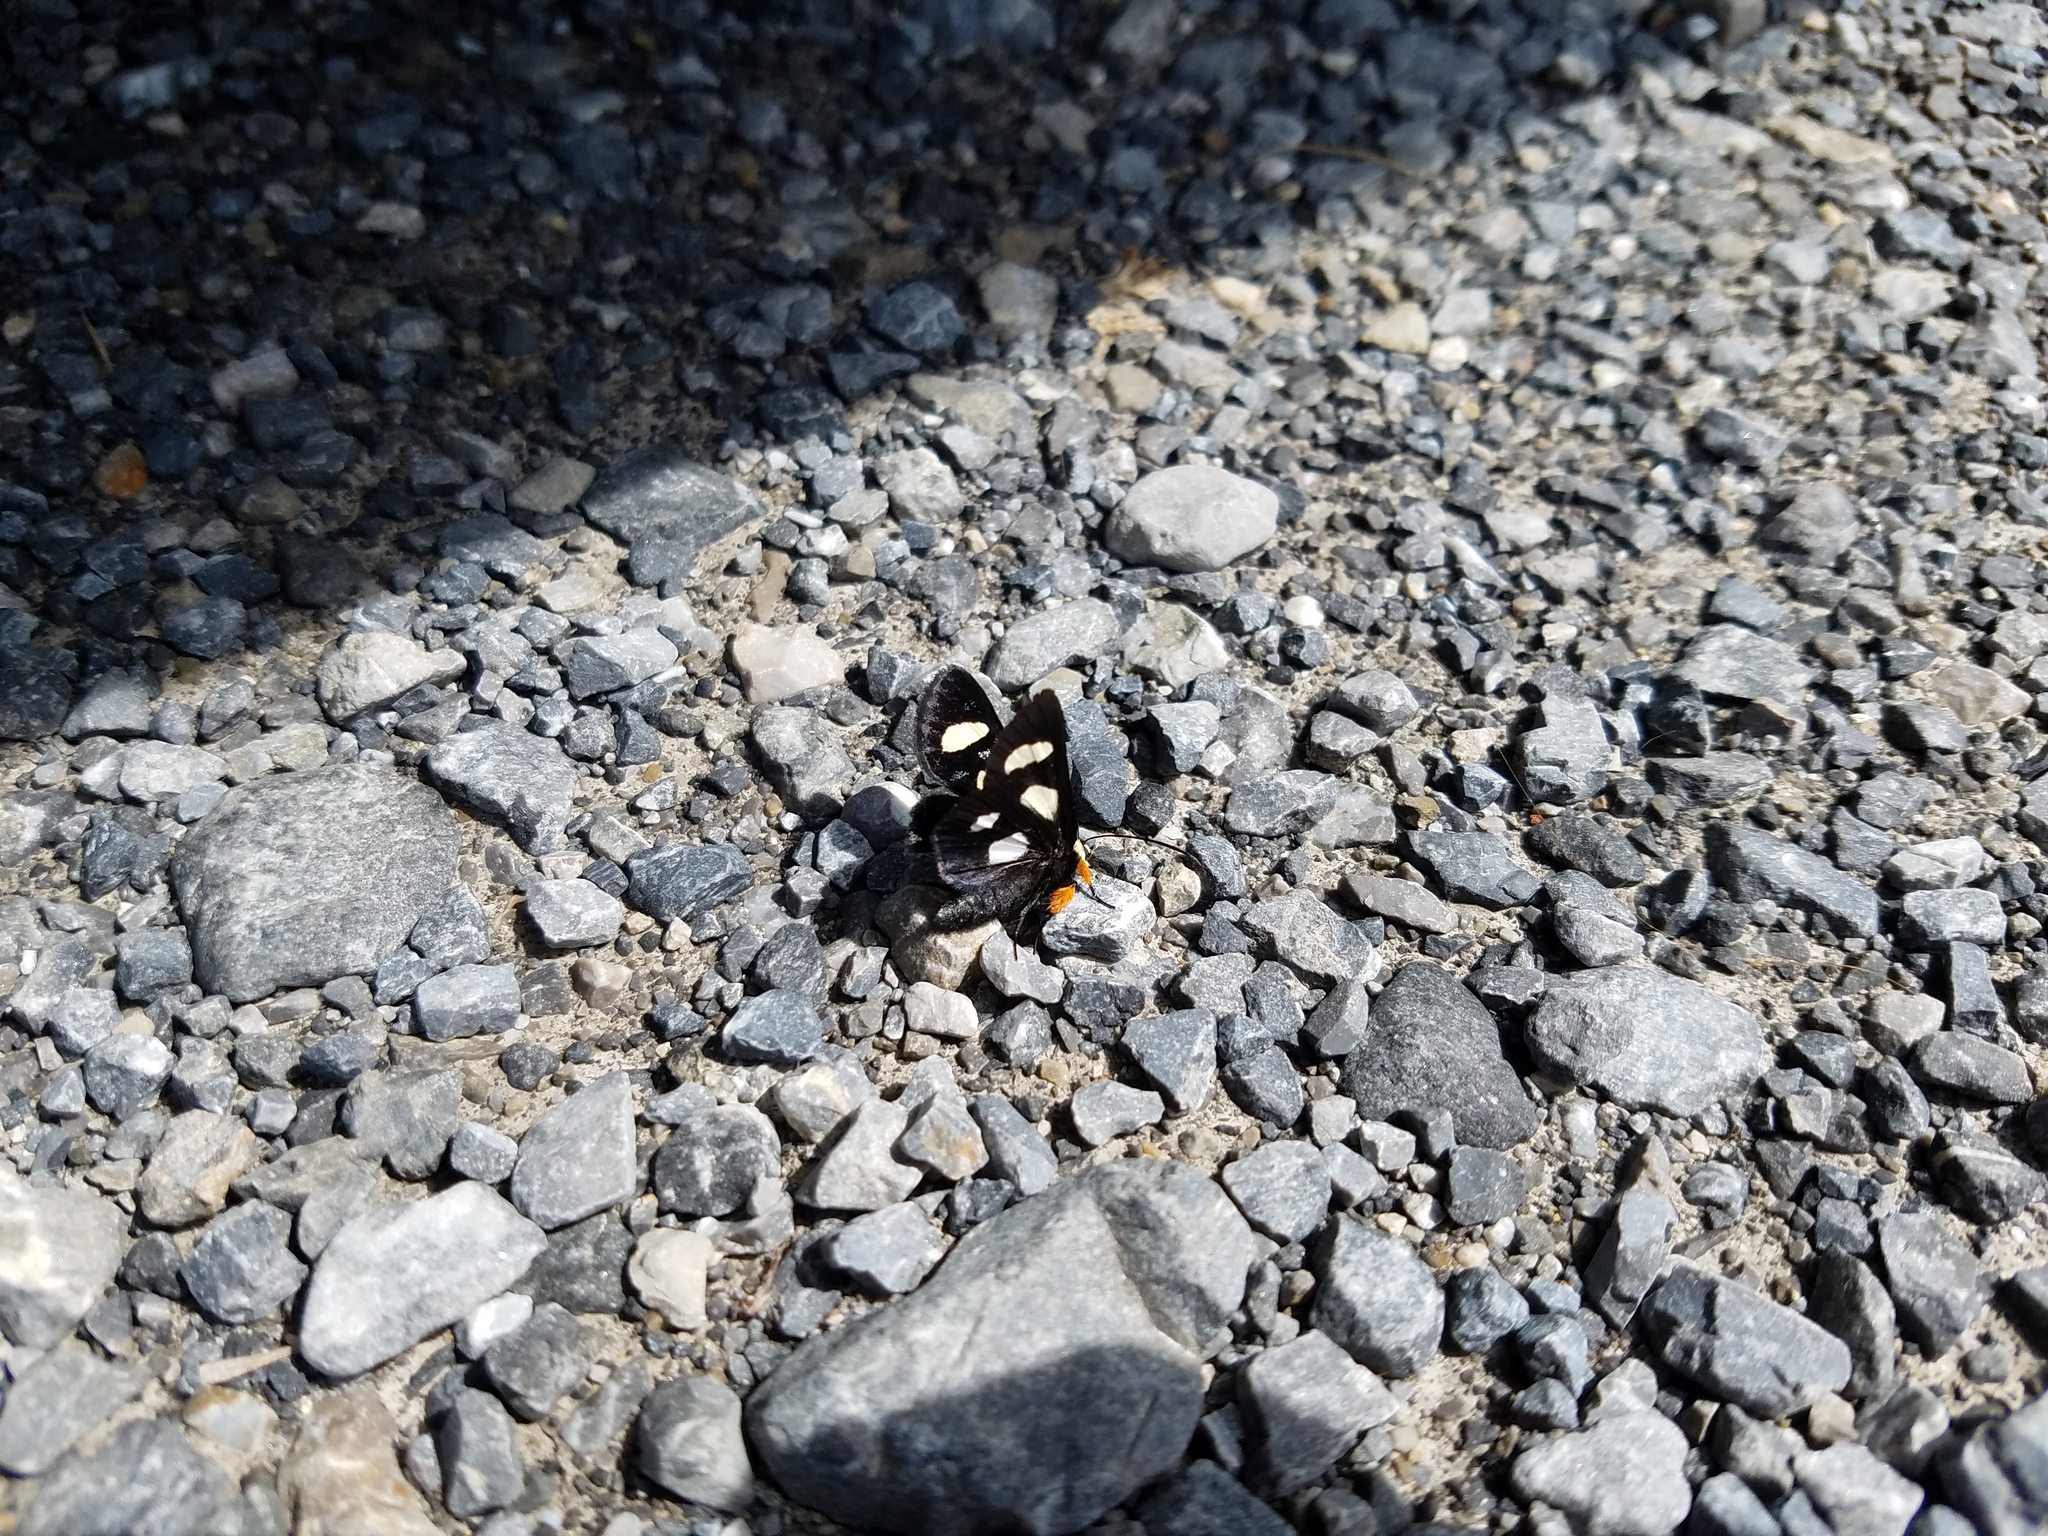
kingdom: Animalia
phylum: Arthropoda
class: Insecta
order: Lepidoptera
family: Noctuidae
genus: Alypia
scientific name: Alypia octomaculata
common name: Eight-spotted forester
